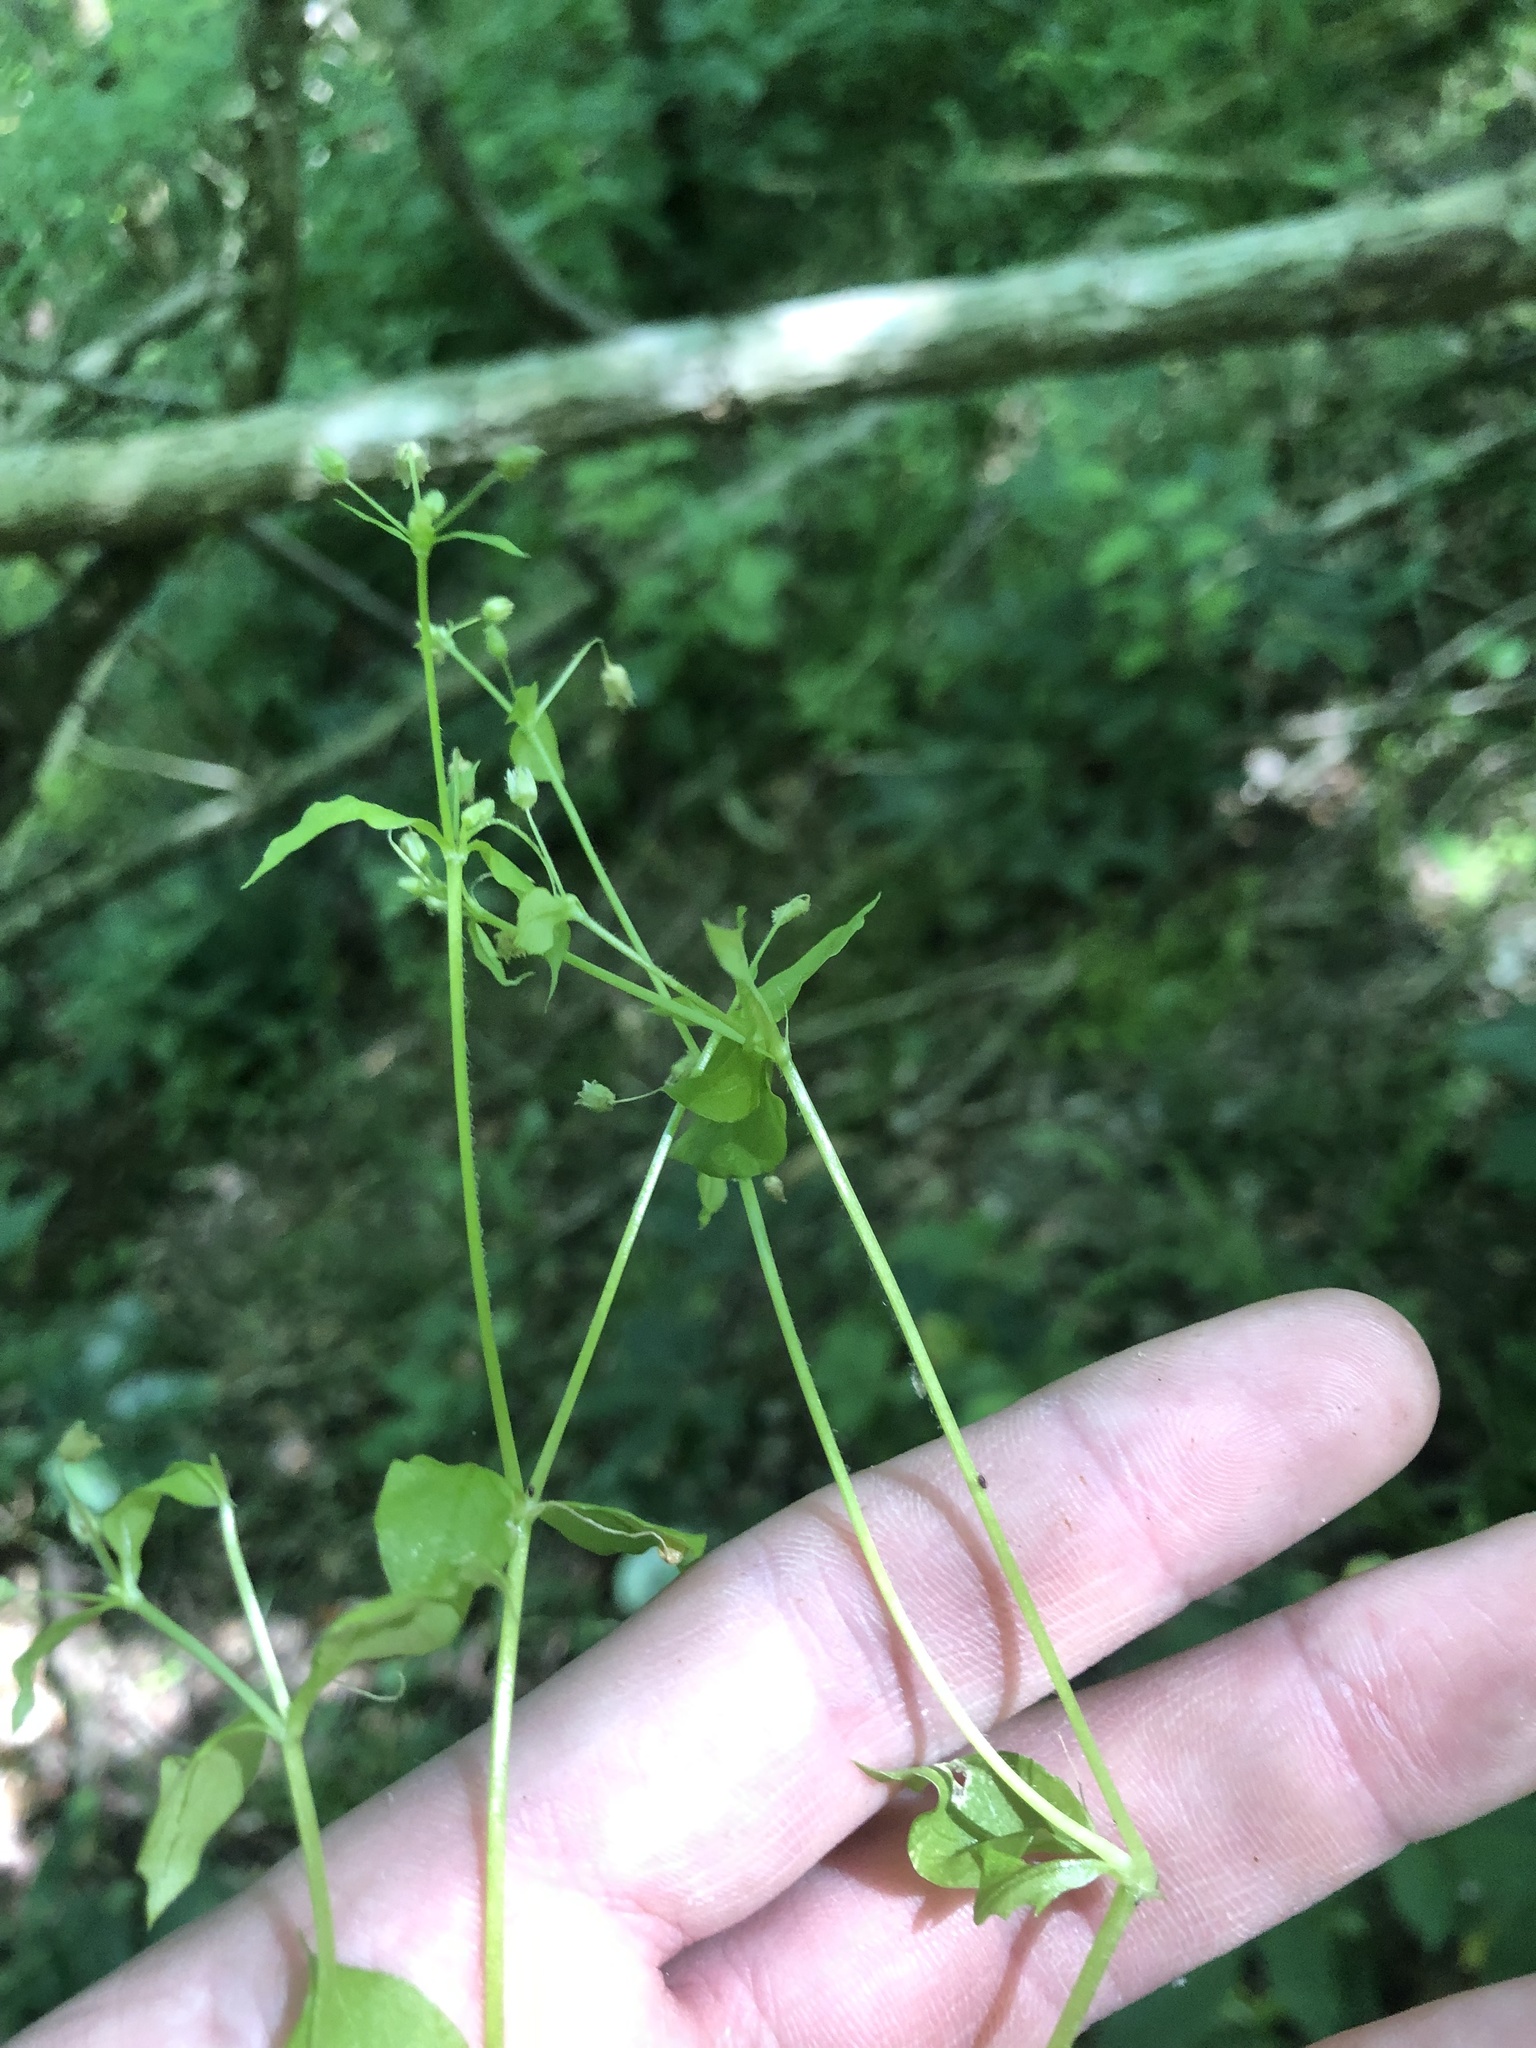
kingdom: Plantae
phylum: Tracheophyta
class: Magnoliopsida
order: Caryophyllales
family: Caryophyllaceae
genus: Cerastium
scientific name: Cerastium nutans
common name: Long-stalked chickweed
